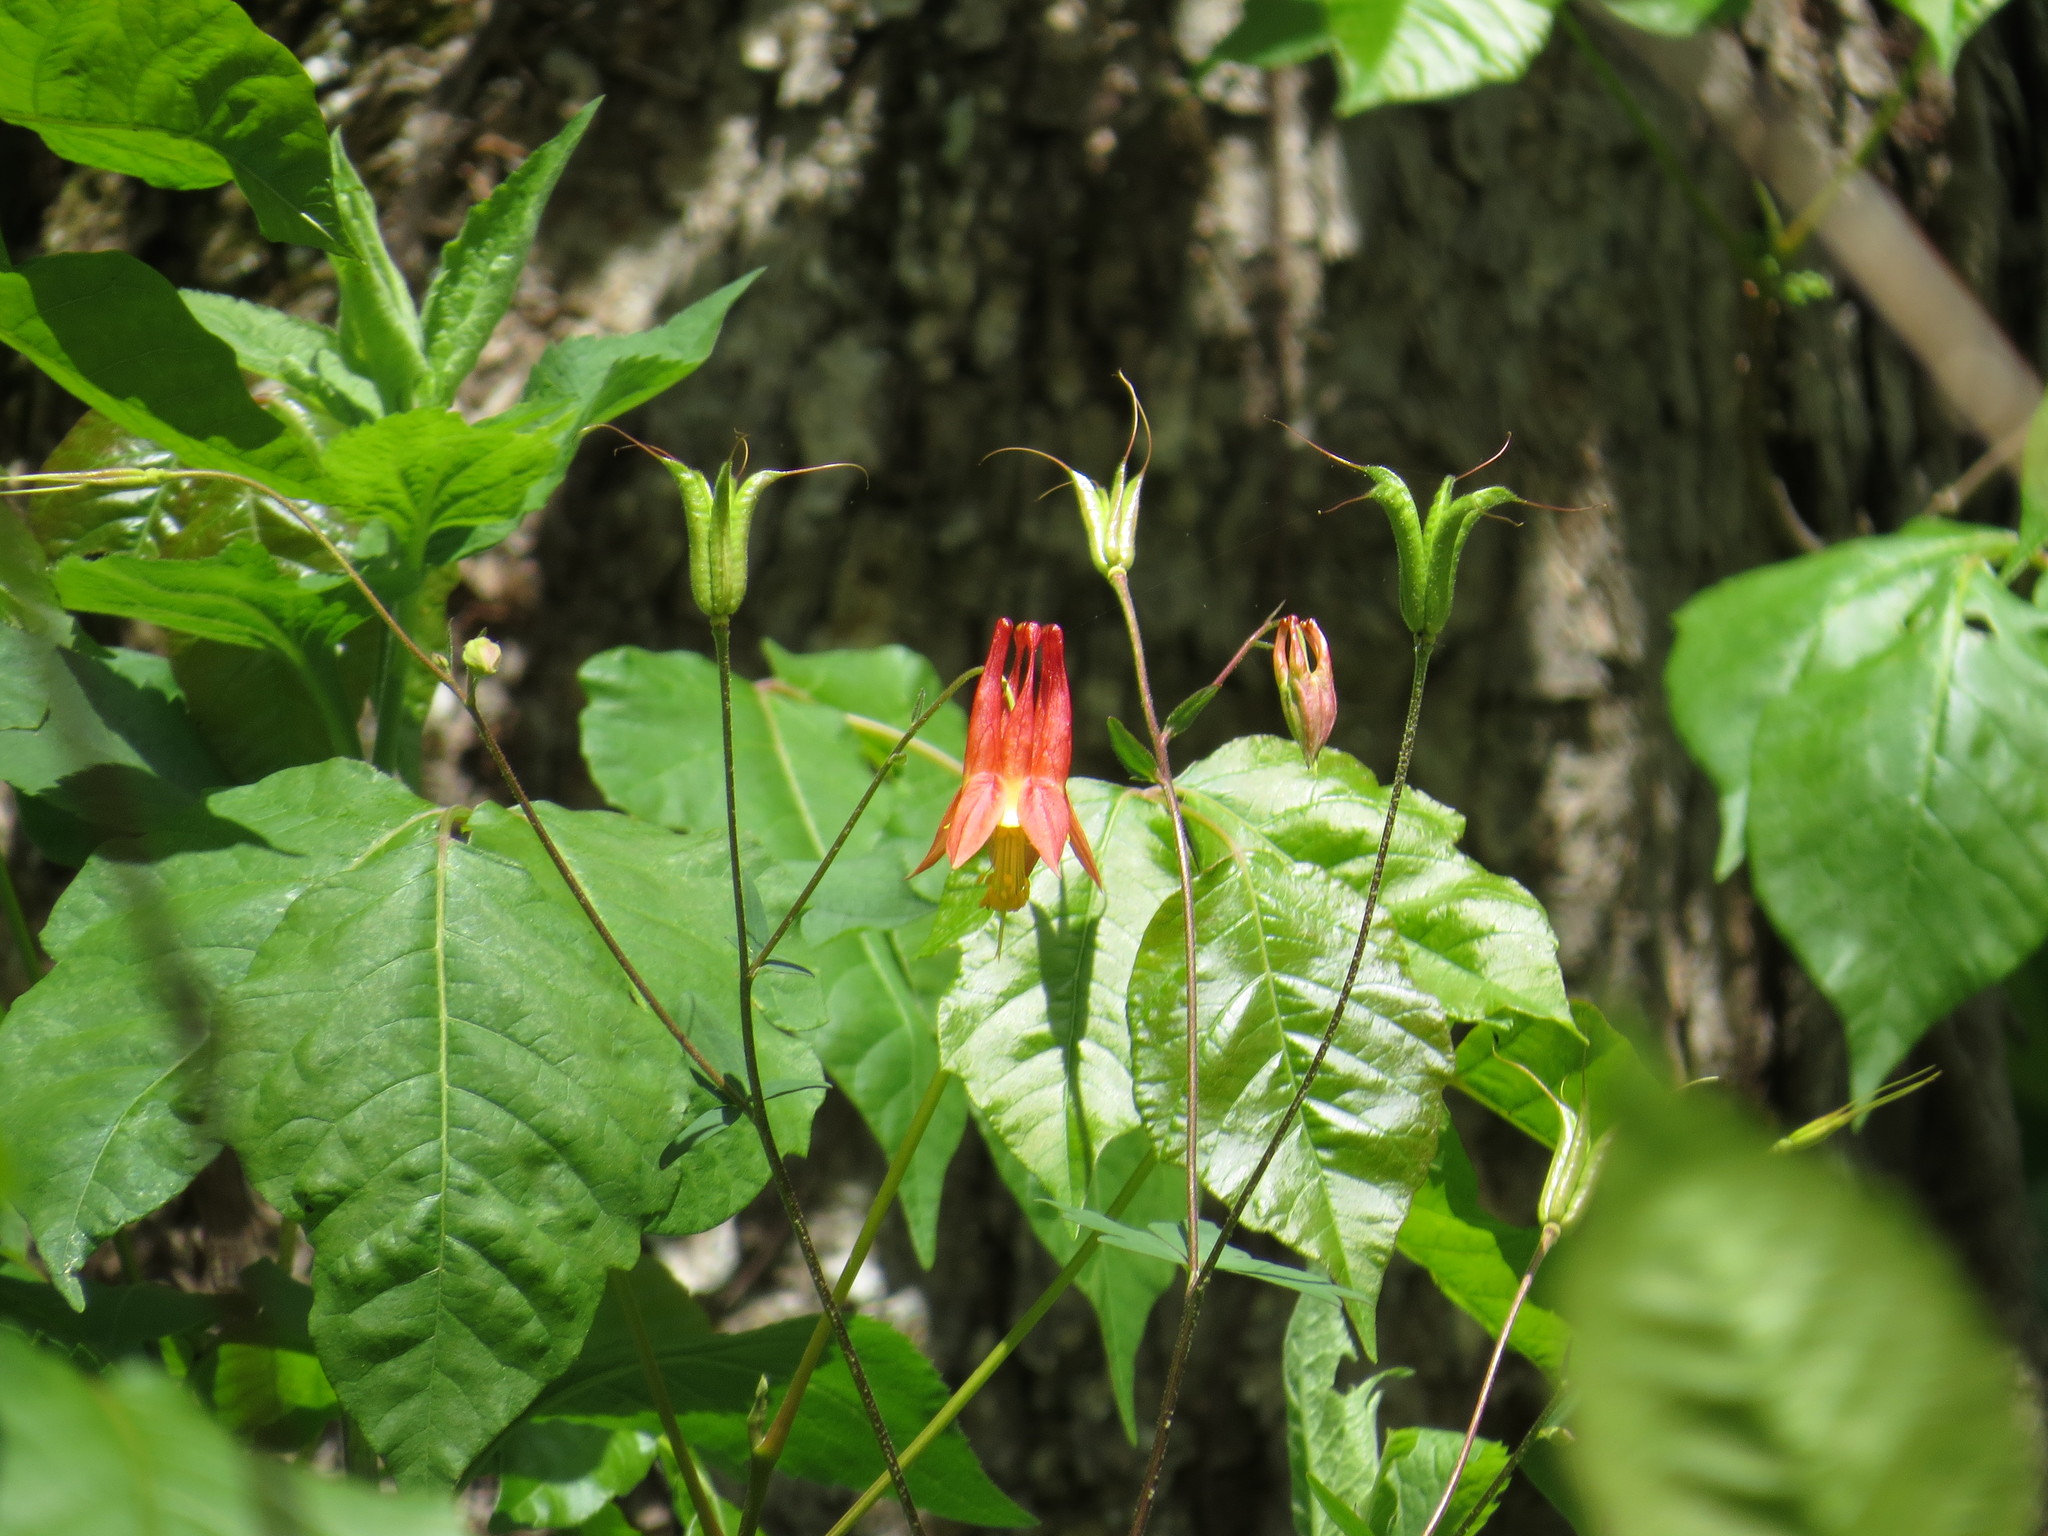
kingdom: Plantae
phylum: Tracheophyta
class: Magnoliopsida
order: Ranunculales
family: Ranunculaceae
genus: Aquilegia
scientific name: Aquilegia canadensis
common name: American columbine
